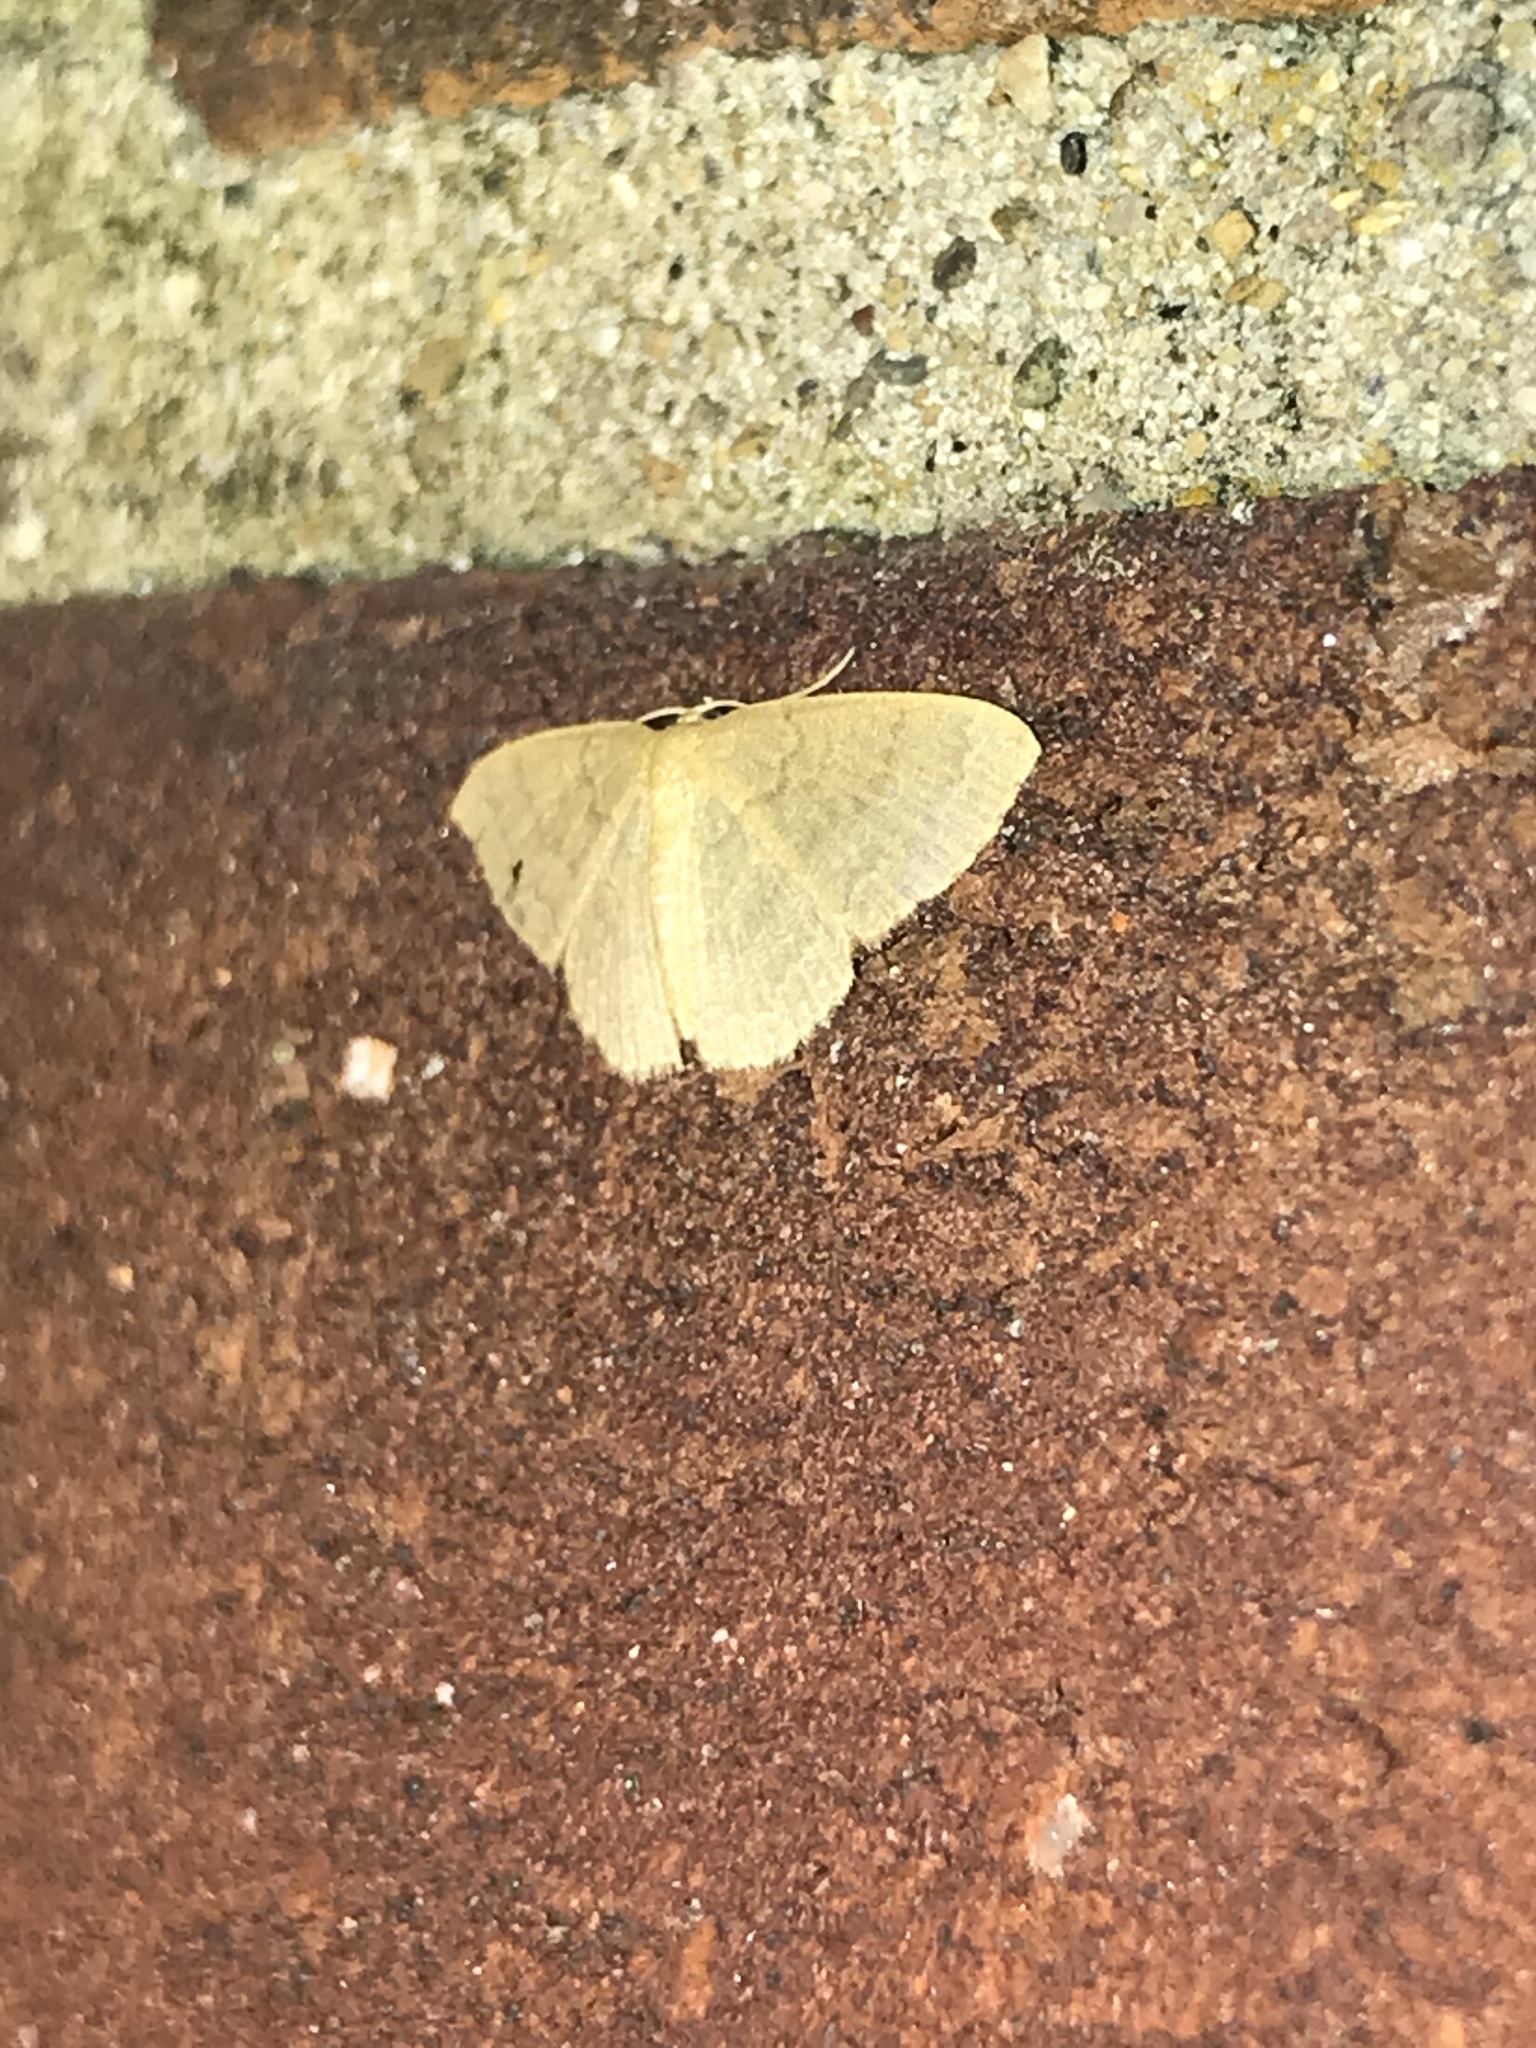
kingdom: Animalia
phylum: Arthropoda
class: Insecta
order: Lepidoptera
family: Geometridae
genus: Pleuroprucha
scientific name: Pleuroprucha insulsaria
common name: Common tan wave
